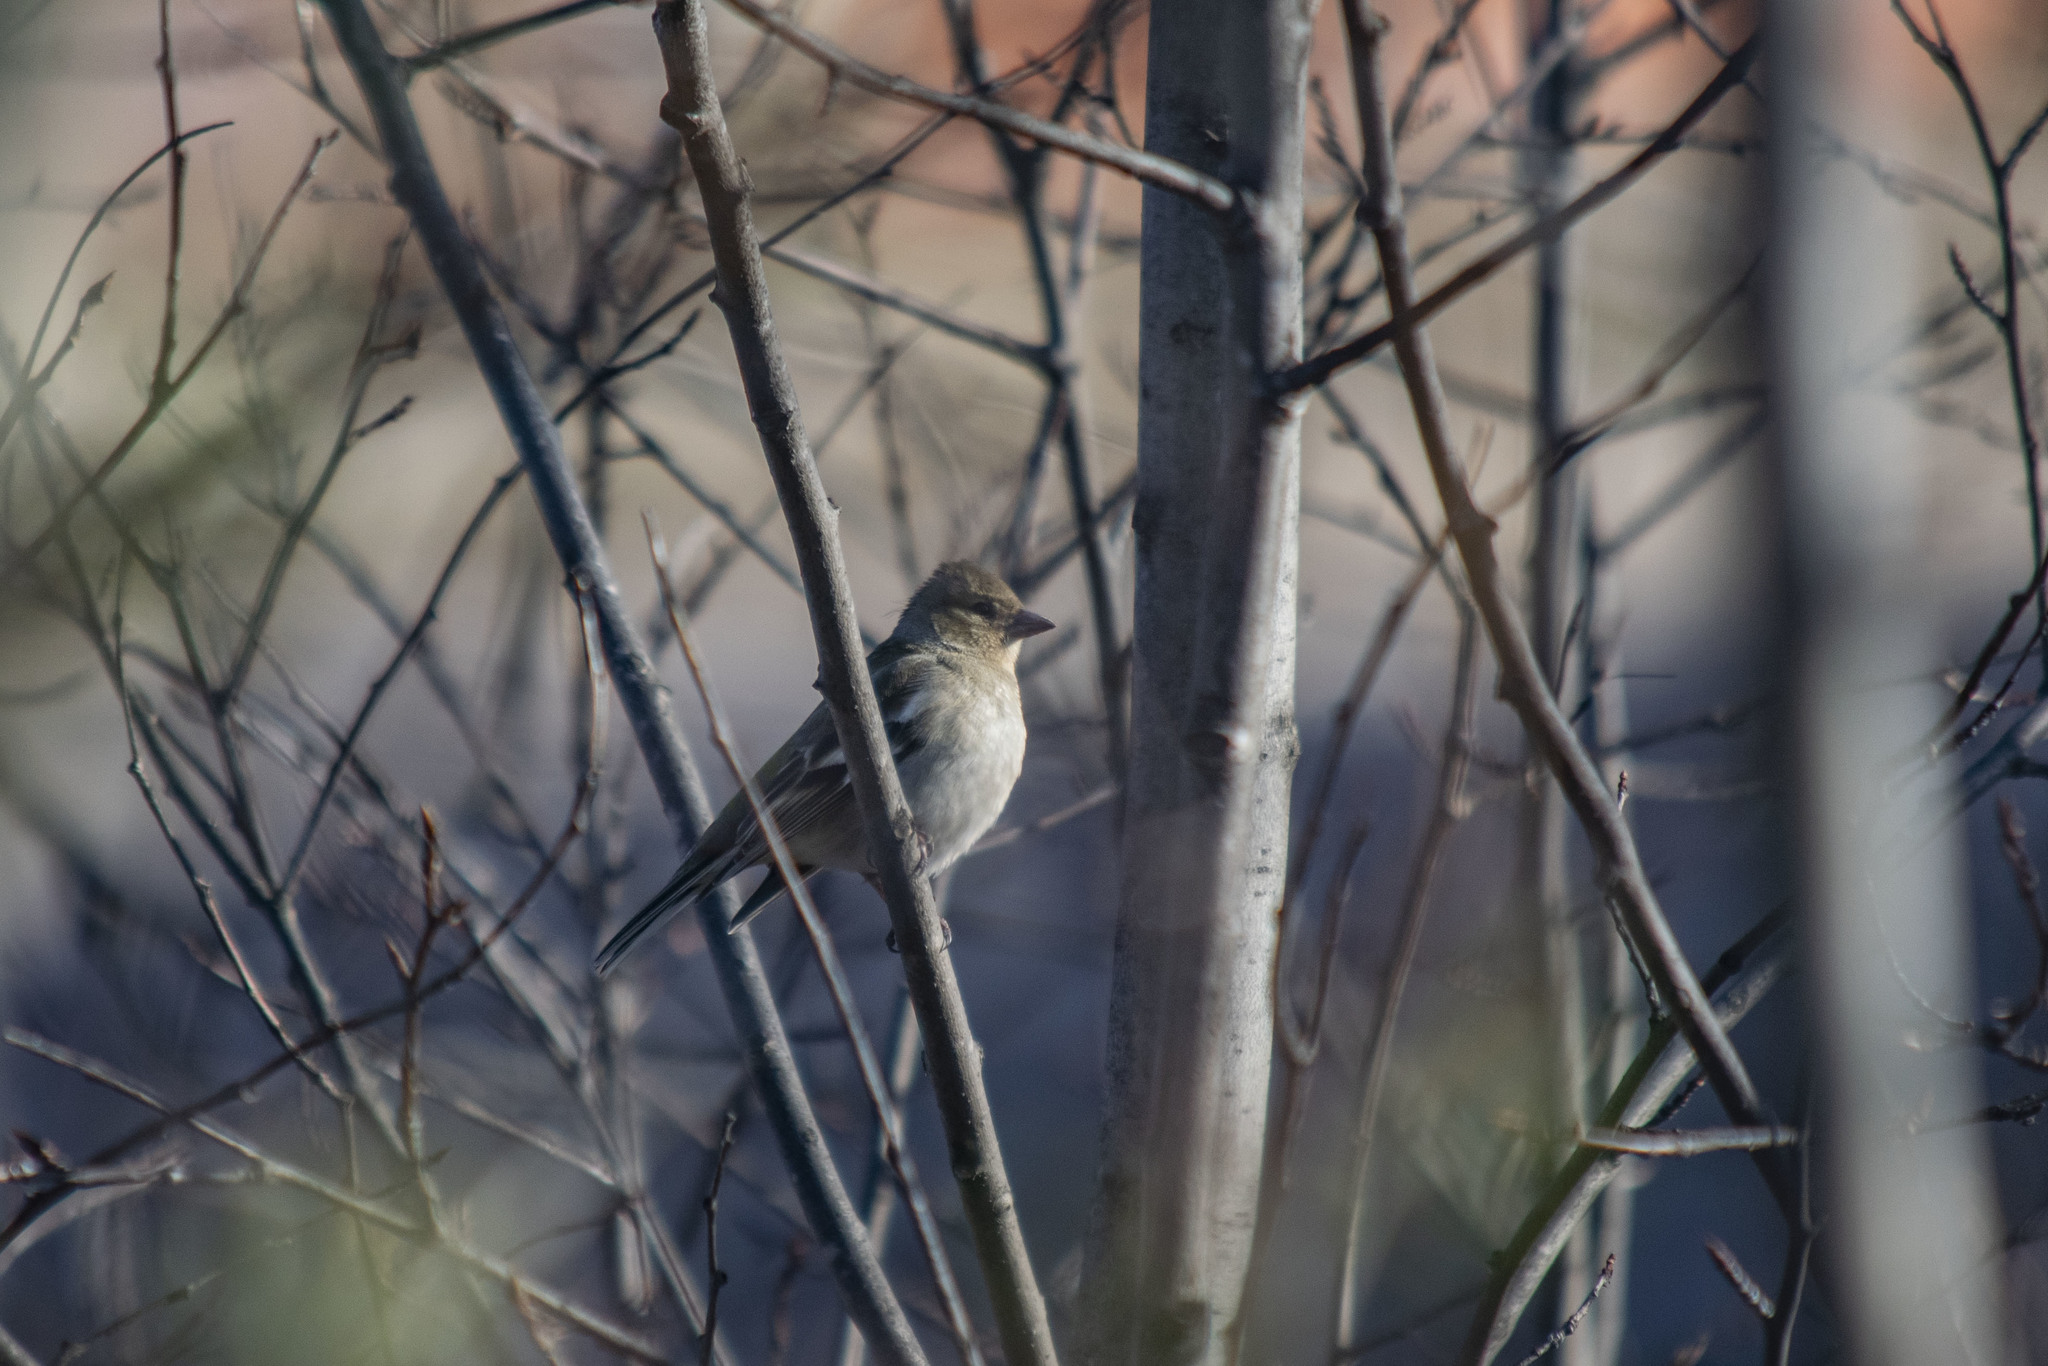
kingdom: Animalia
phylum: Chordata
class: Aves
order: Passeriformes
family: Fringillidae
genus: Fringilla
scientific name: Fringilla coelebs
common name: Common chaffinch
